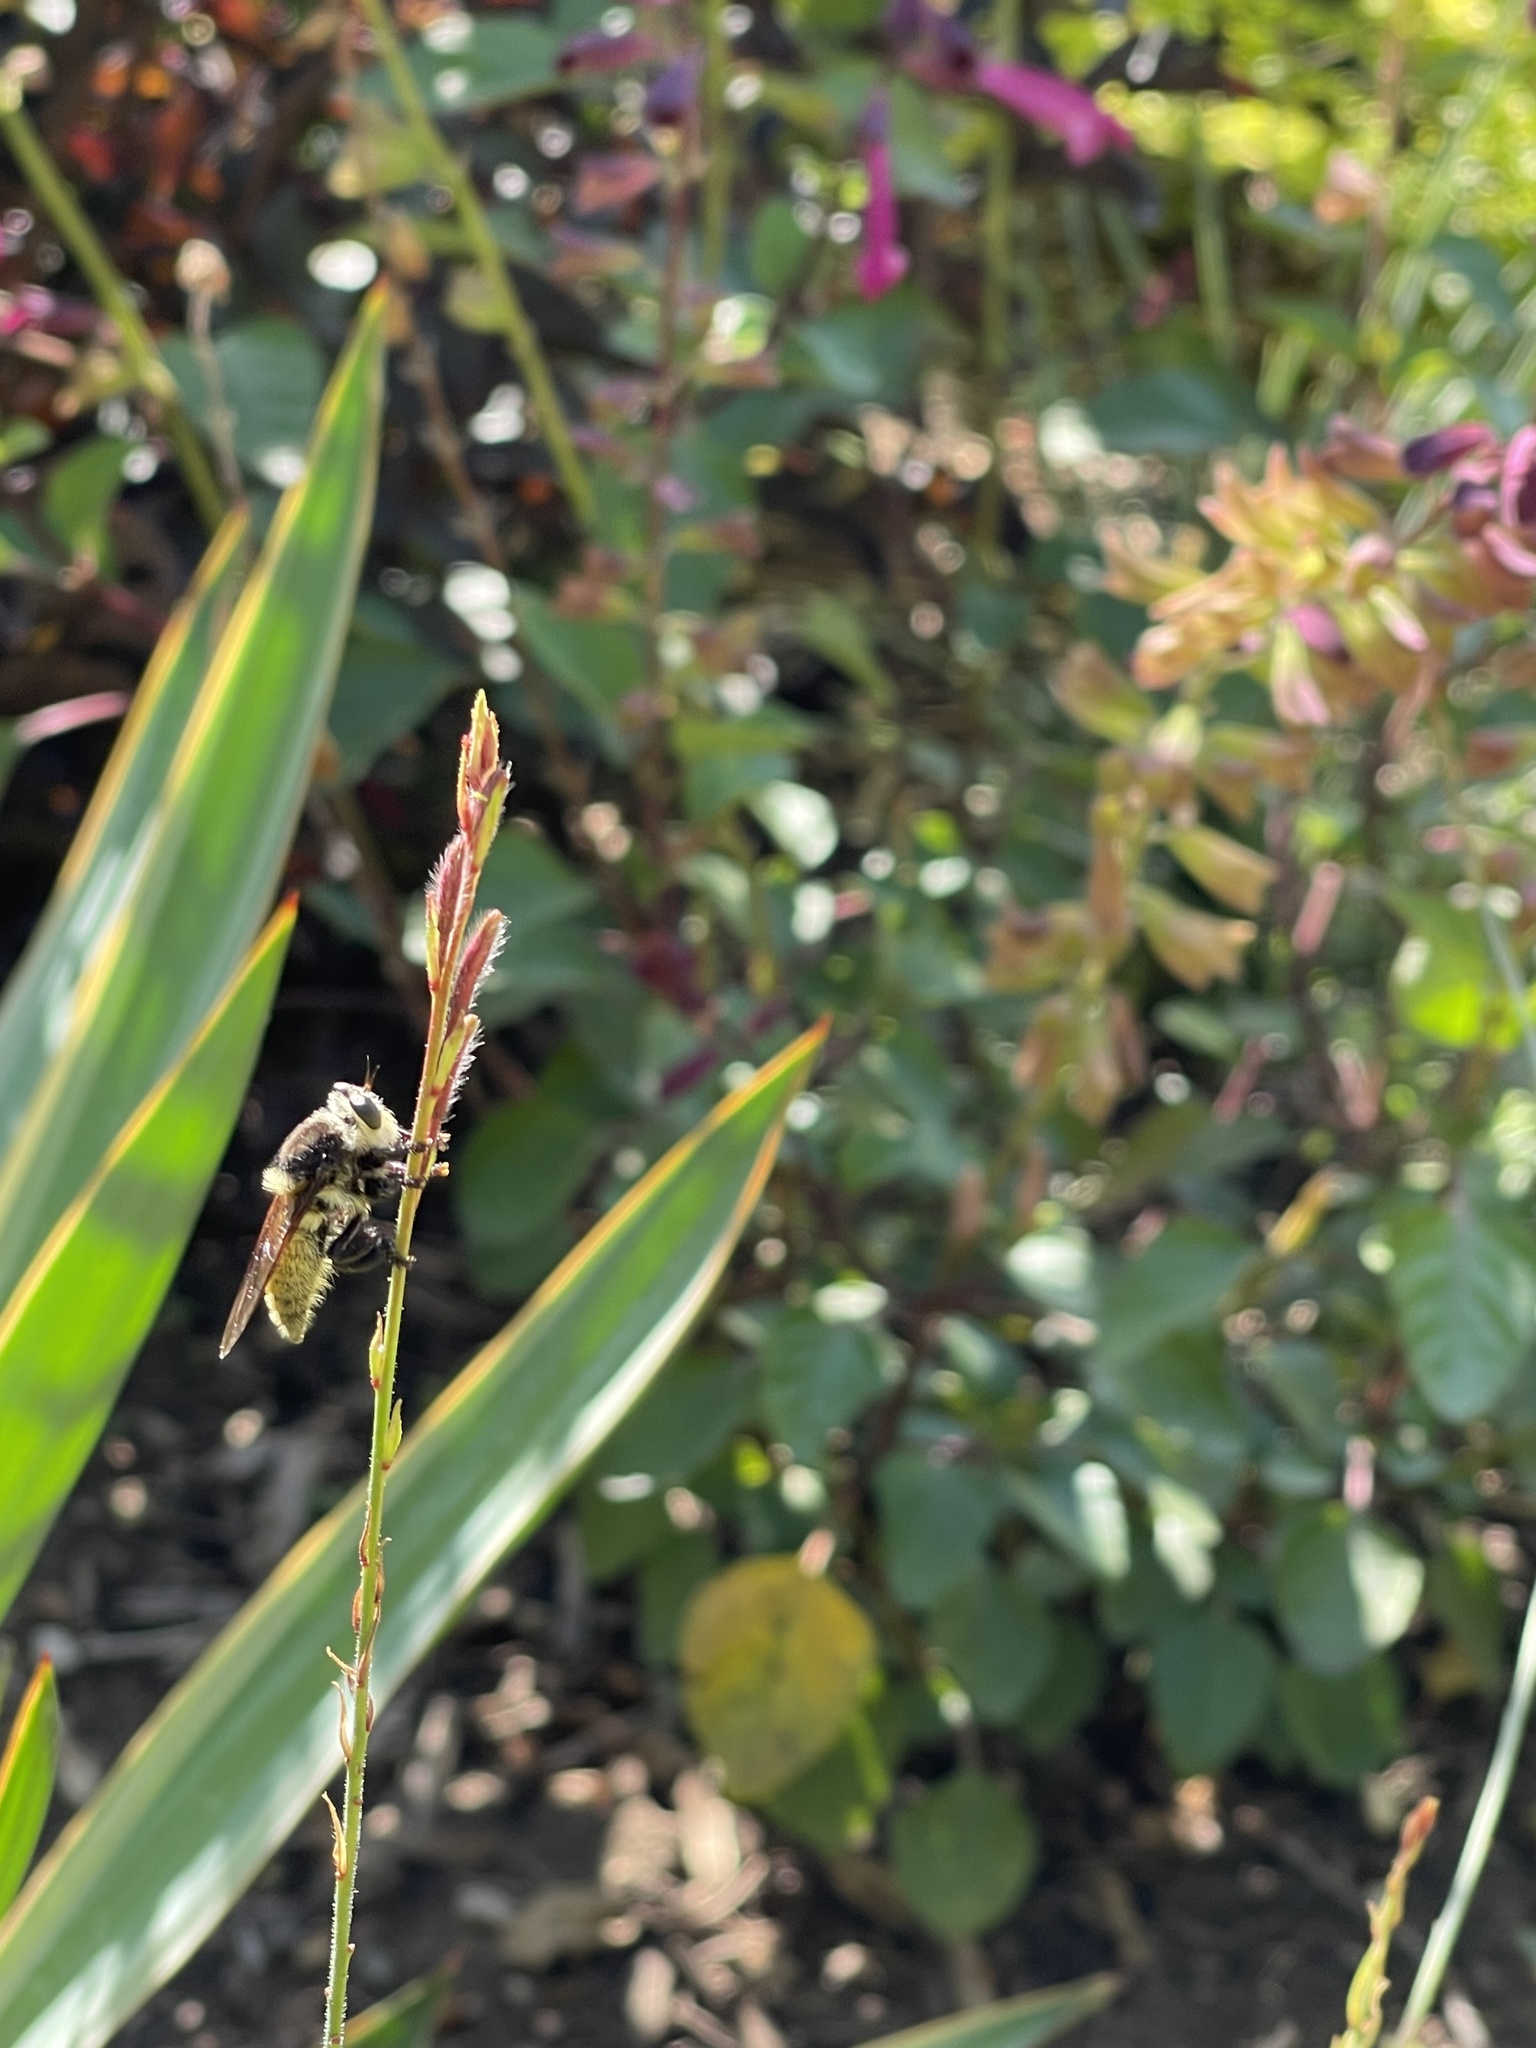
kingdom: Animalia
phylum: Arthropoda
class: Insecta
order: Diptera
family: Asilidae
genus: Mallophora
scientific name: Mallophora fautrix
